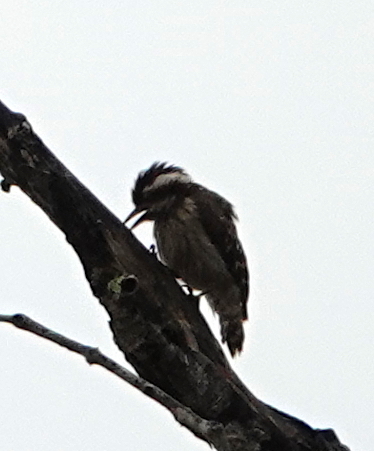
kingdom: Animalia
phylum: Chordata
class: Aves
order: Piciformes
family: Picidae
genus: Yungipicus
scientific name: Yungipicus moluccensis
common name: Sunda pygmy woodpecker
